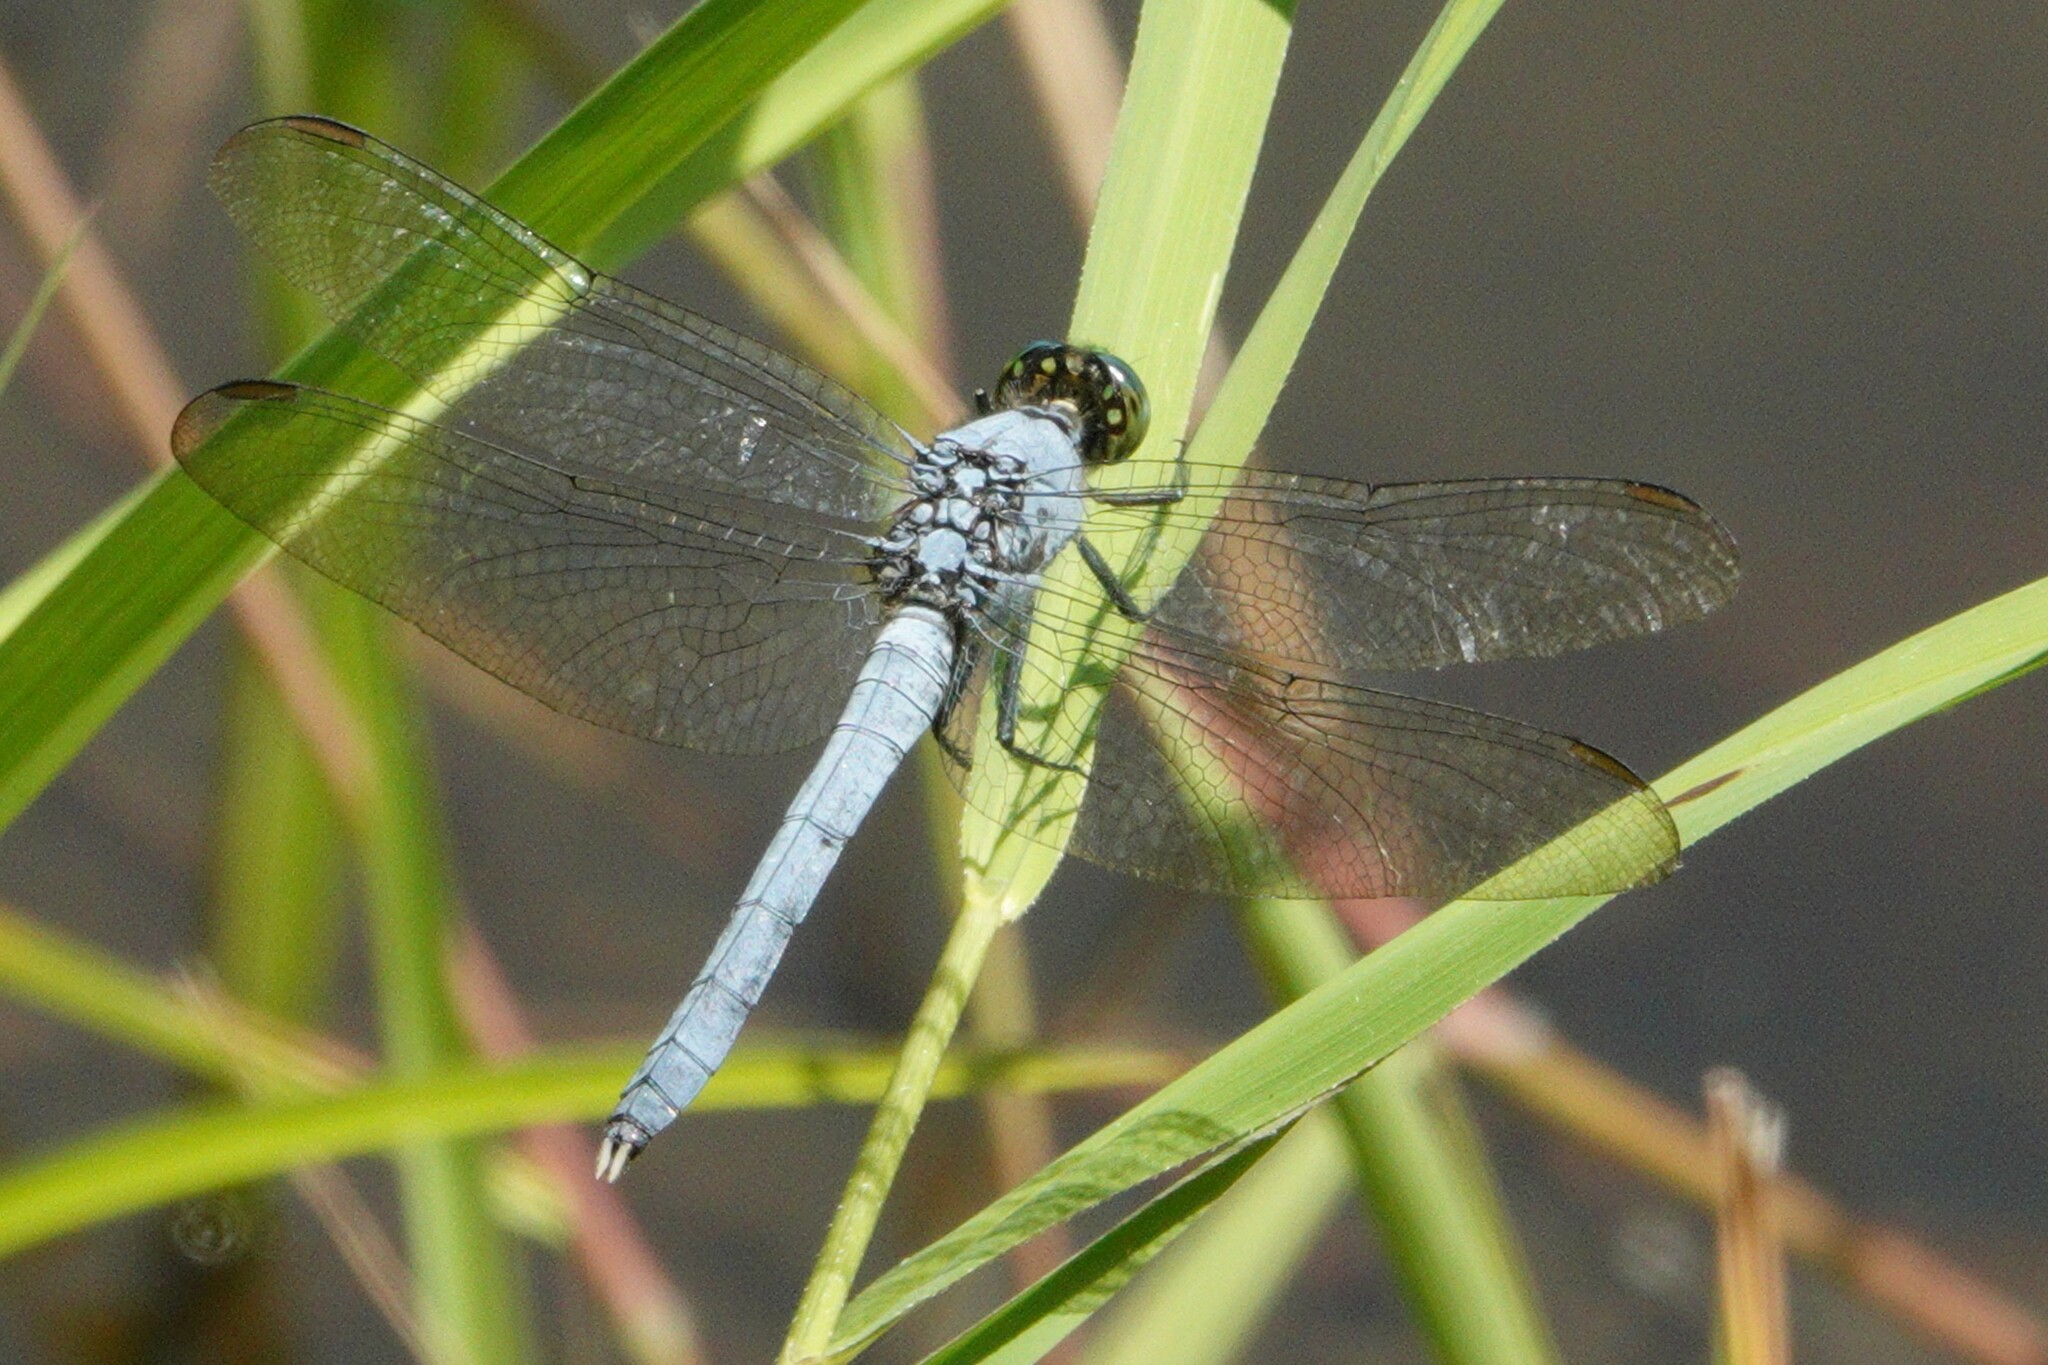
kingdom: Animalia
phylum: Arthropoda
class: Insecta
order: Odonata
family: Libellulidae
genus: Erythemis
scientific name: Erythemis simplicicollis
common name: Eastern pondhawk
